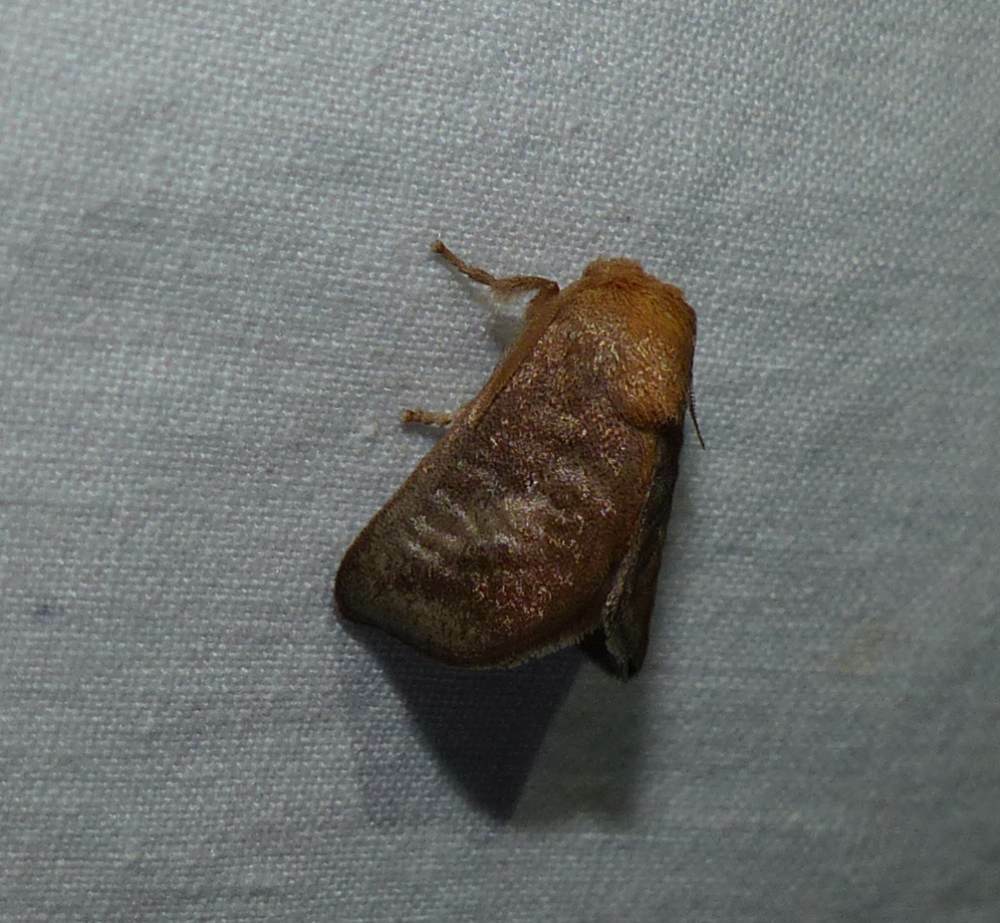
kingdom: Animalia
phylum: Arthropoda
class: Insecta
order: Lepidoptera
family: Limacodidae
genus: Isa
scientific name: Isa textula
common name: Crowned slug moth
